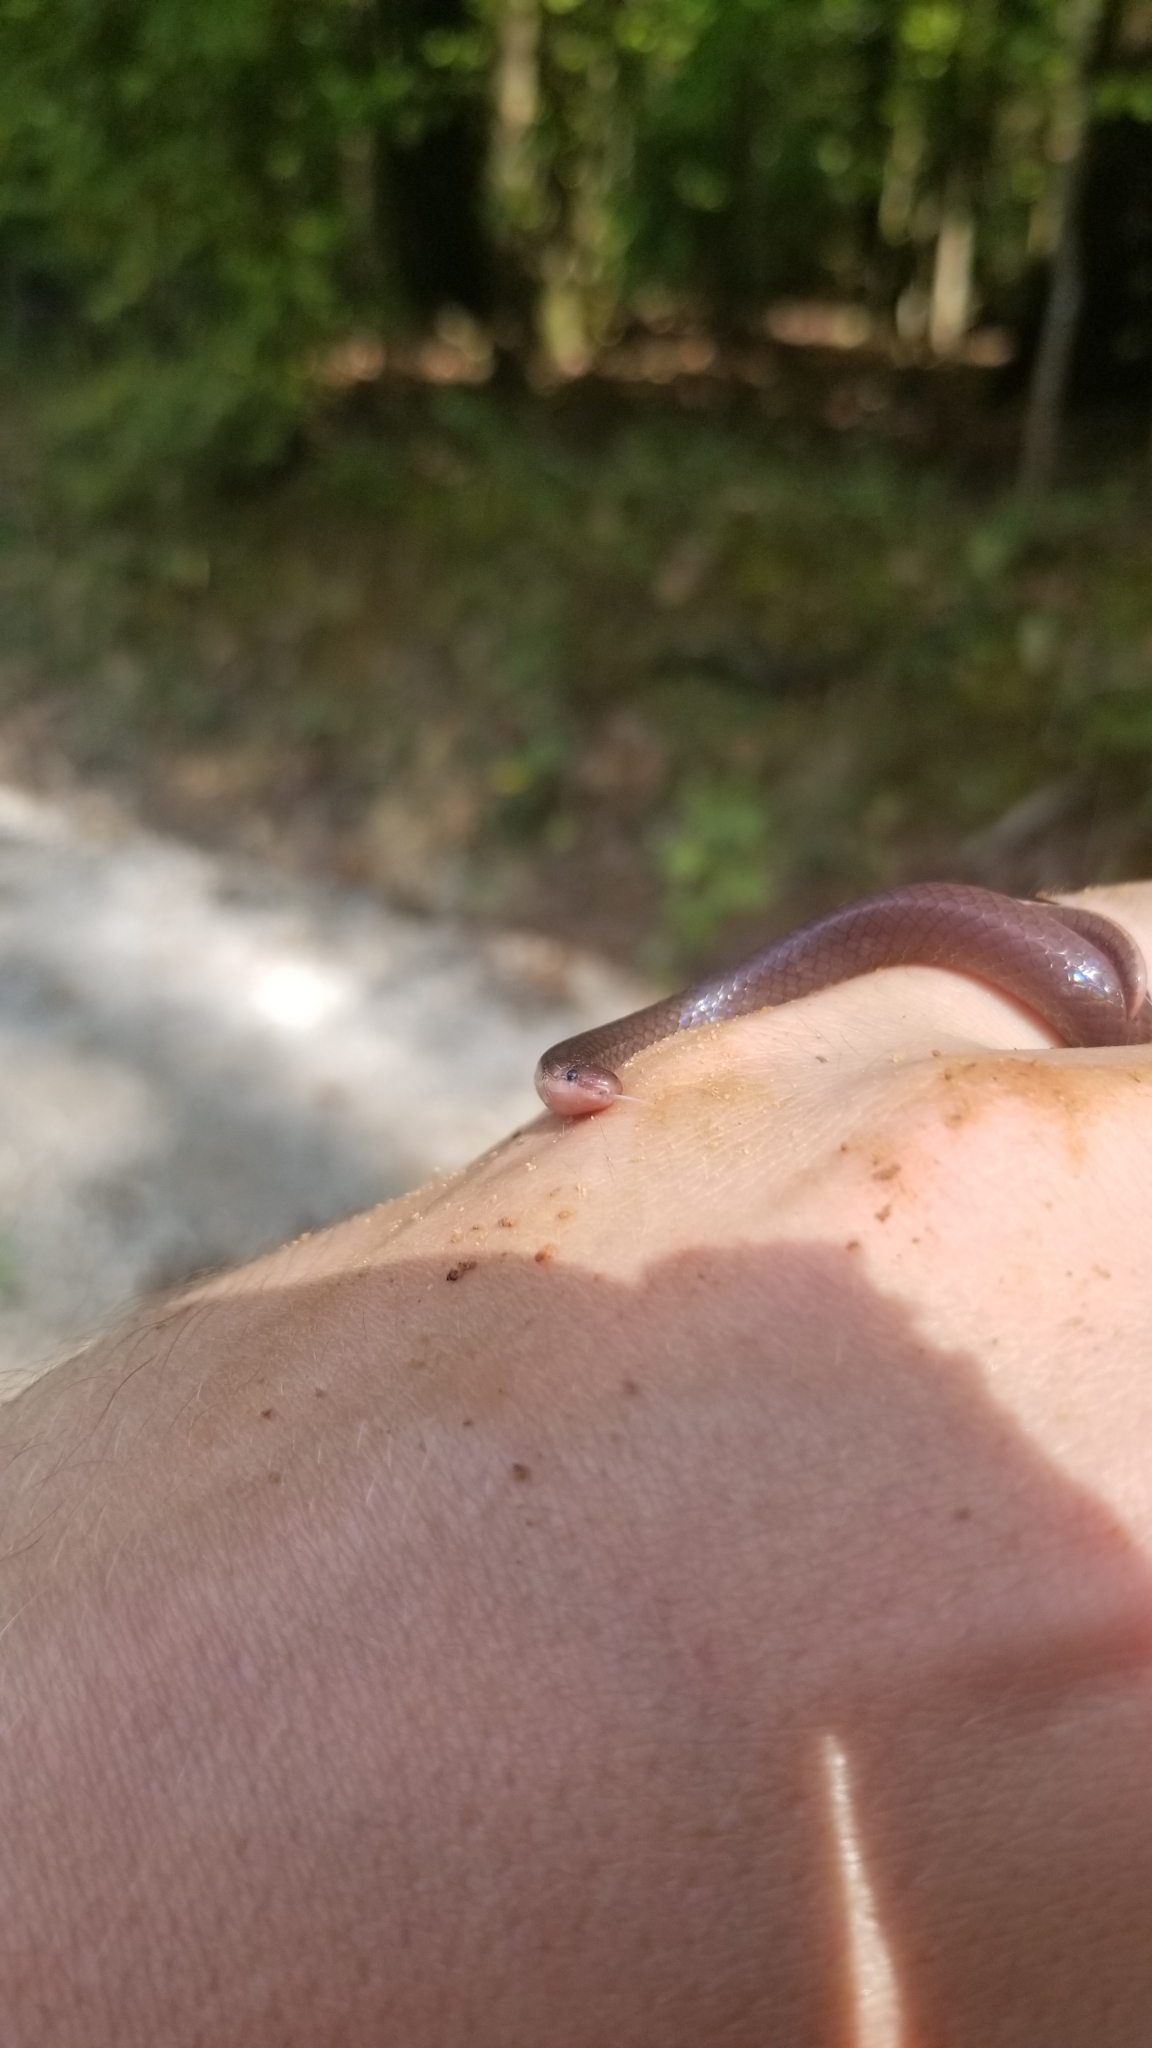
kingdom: Animalia
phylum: Chordata
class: Squamata
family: Colubridae
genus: Carphophis
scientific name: Carphophis amoenus
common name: Eastern worm snake
